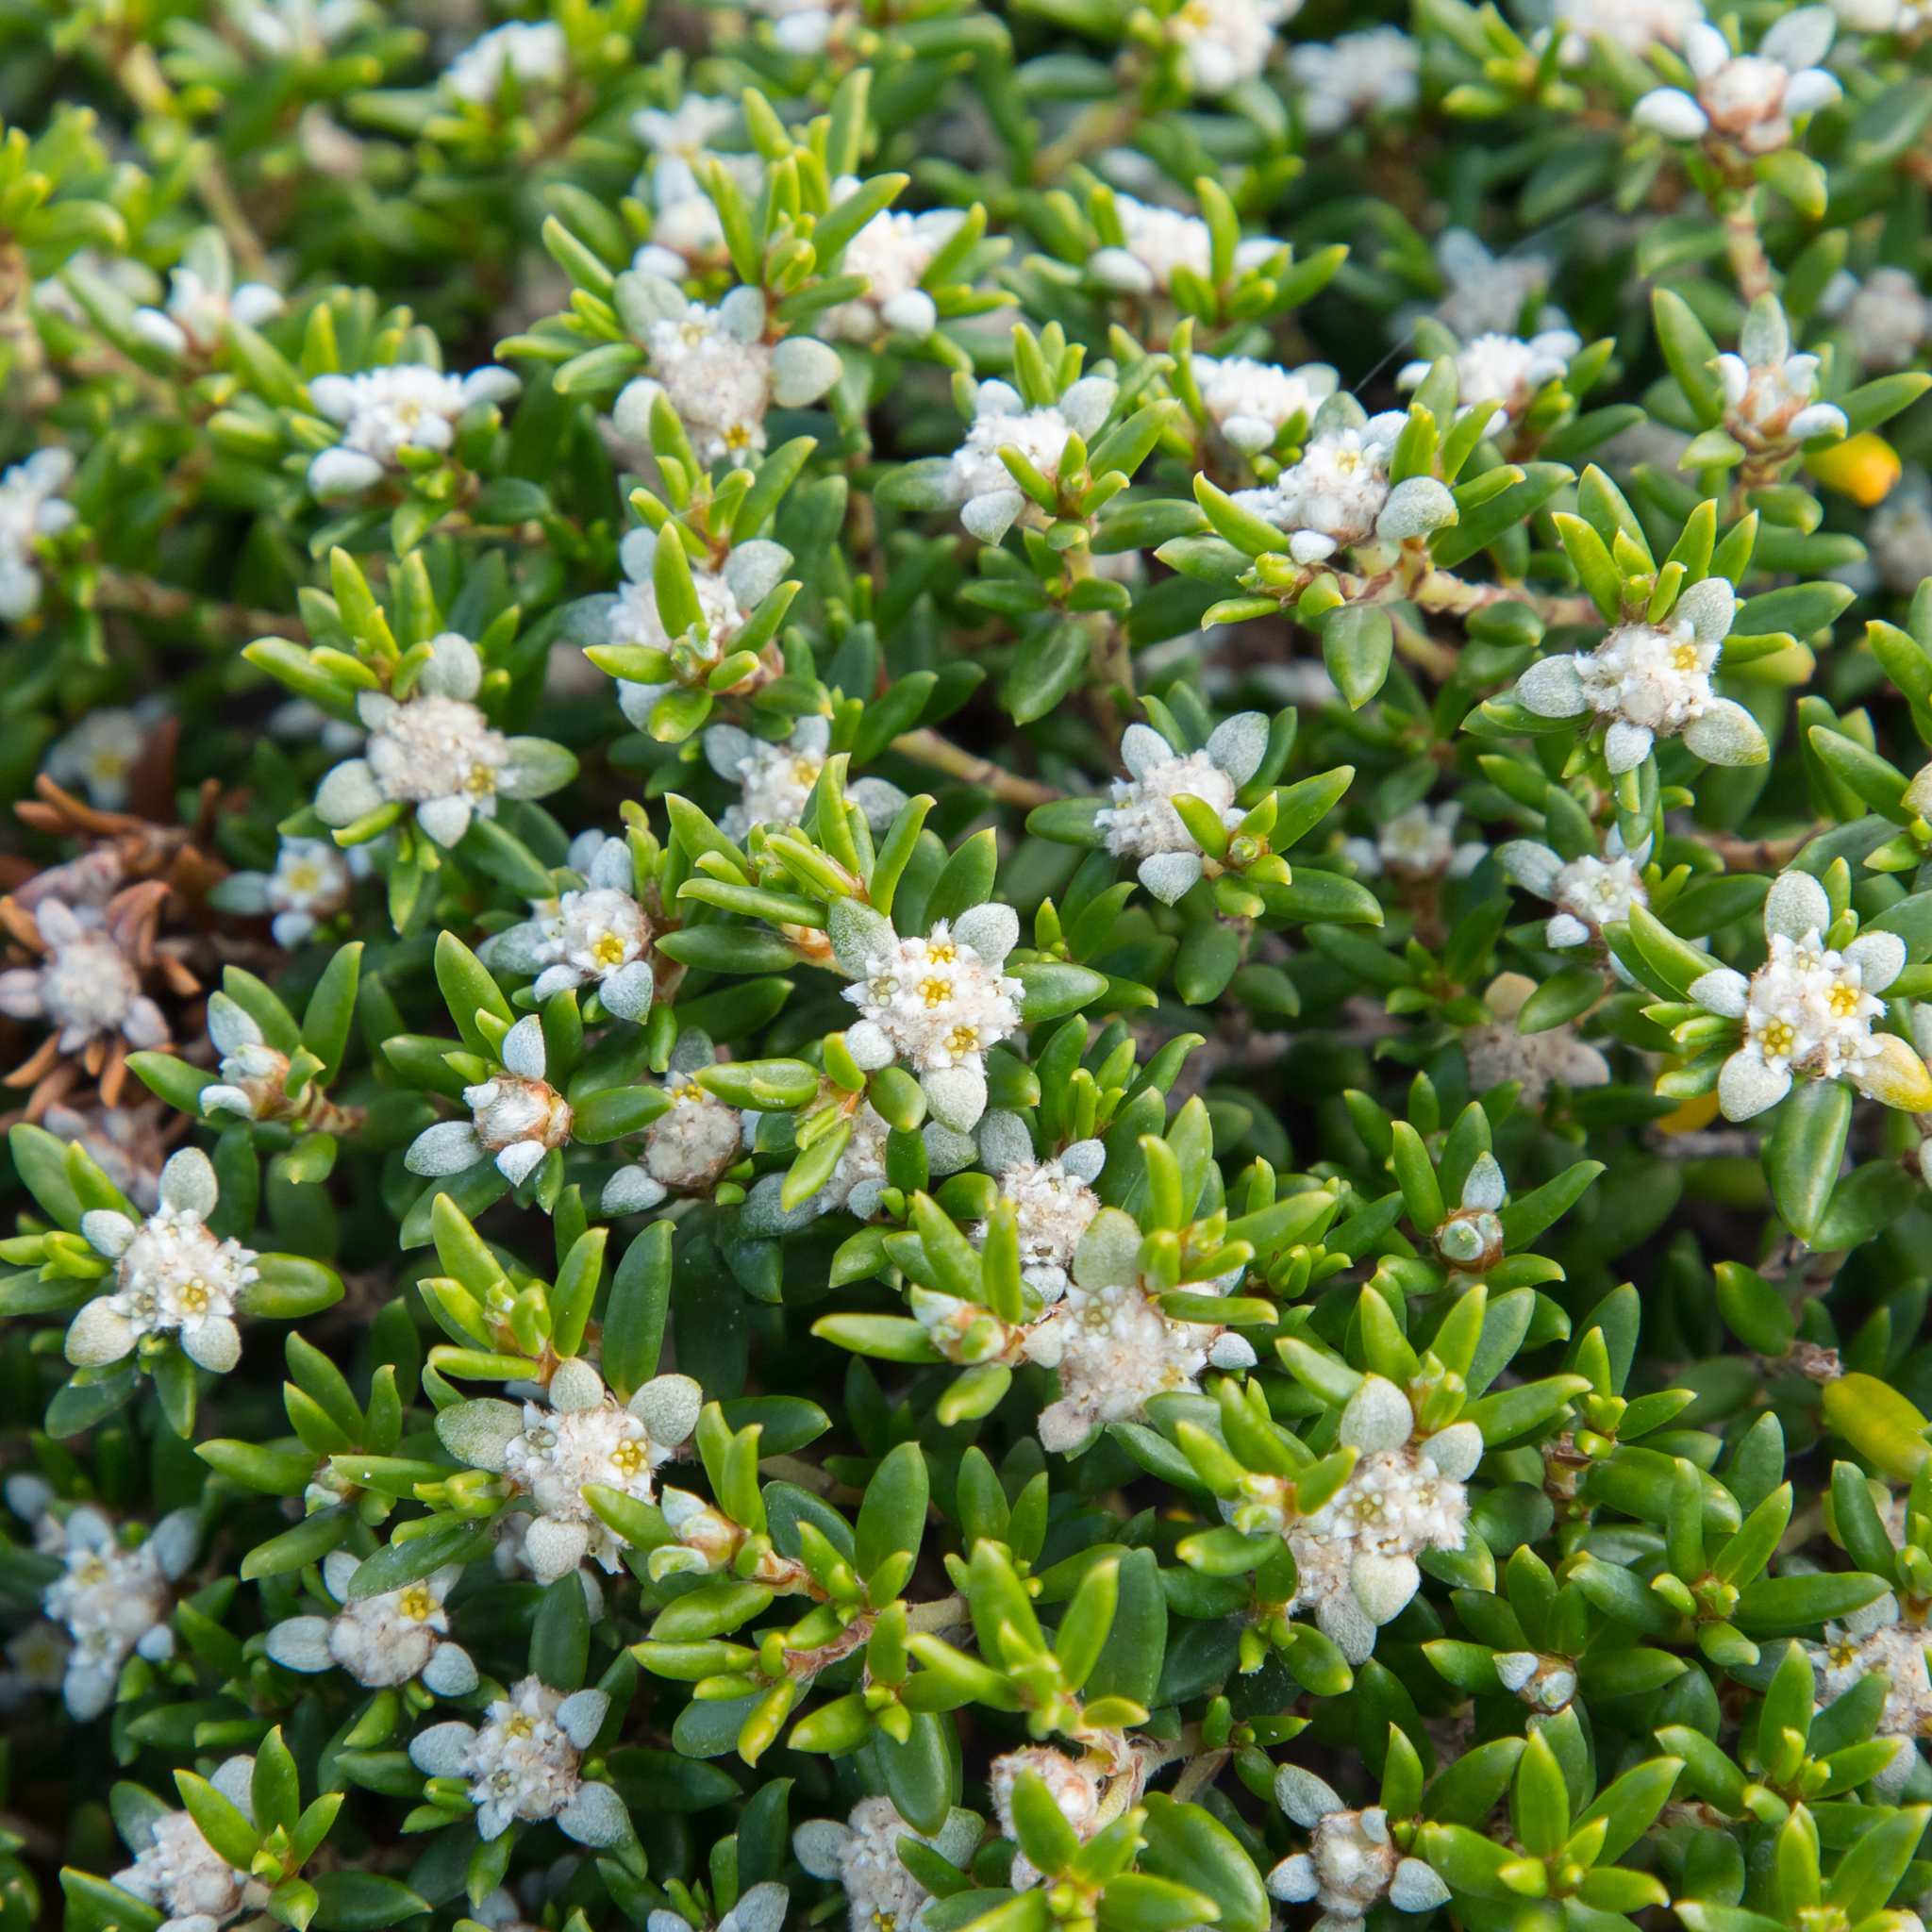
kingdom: Plantae
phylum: Tracheophyta
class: Magnoliopsida
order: Rosales
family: Rhamnaceae
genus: Spyridium
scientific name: Spyridium phylicoides
